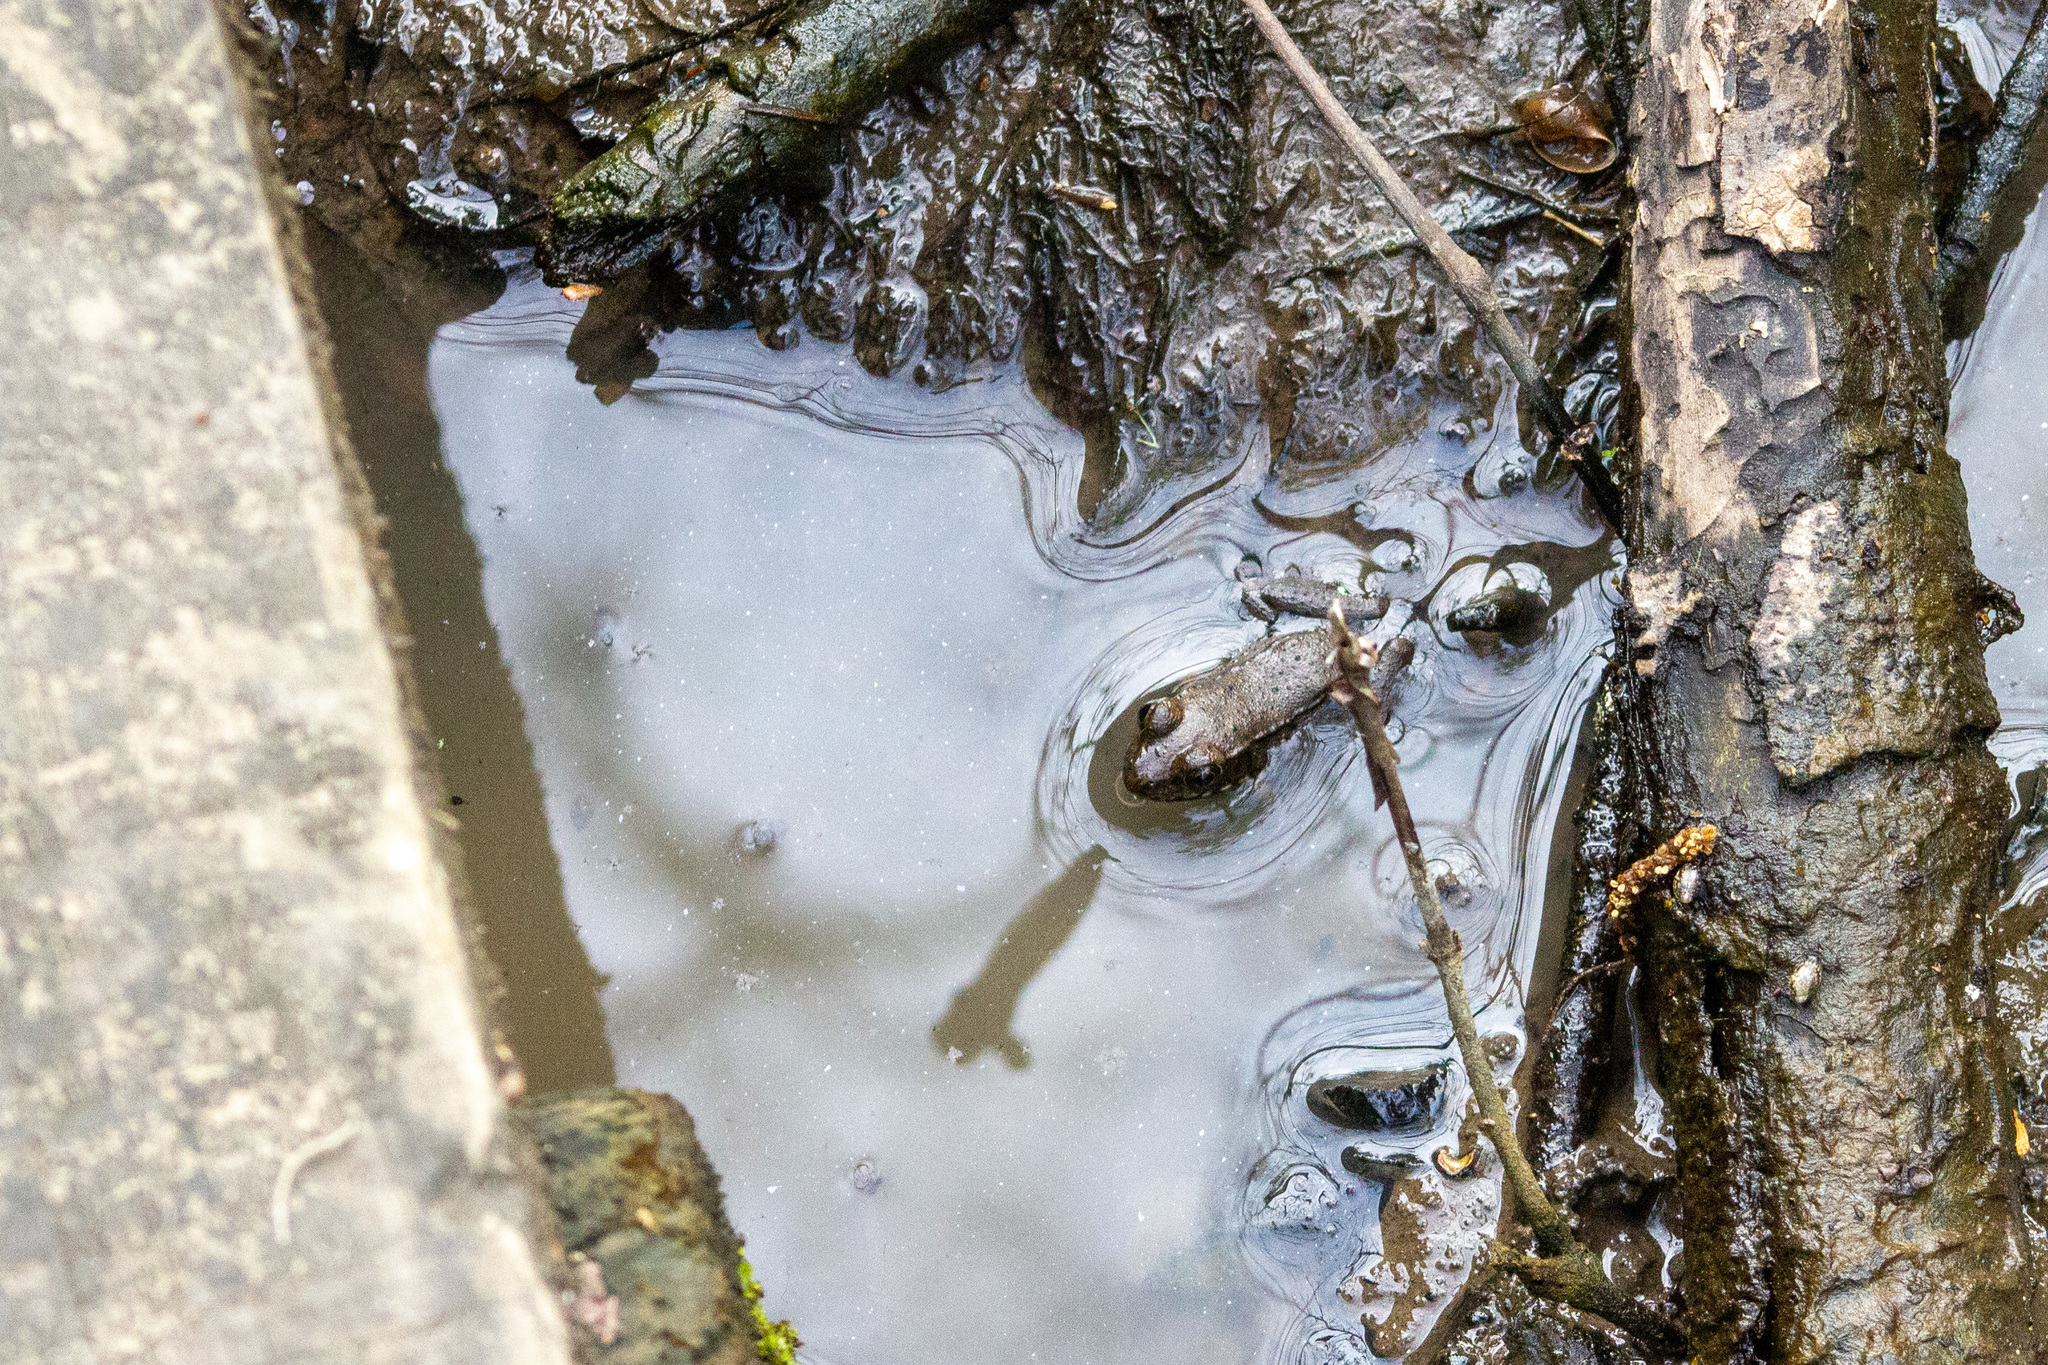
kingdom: Animalia
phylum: Chordata
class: Amphibia
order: Anura
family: Ranidae
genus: Lithobates
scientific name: Lithobates clamitans
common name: Green frog
